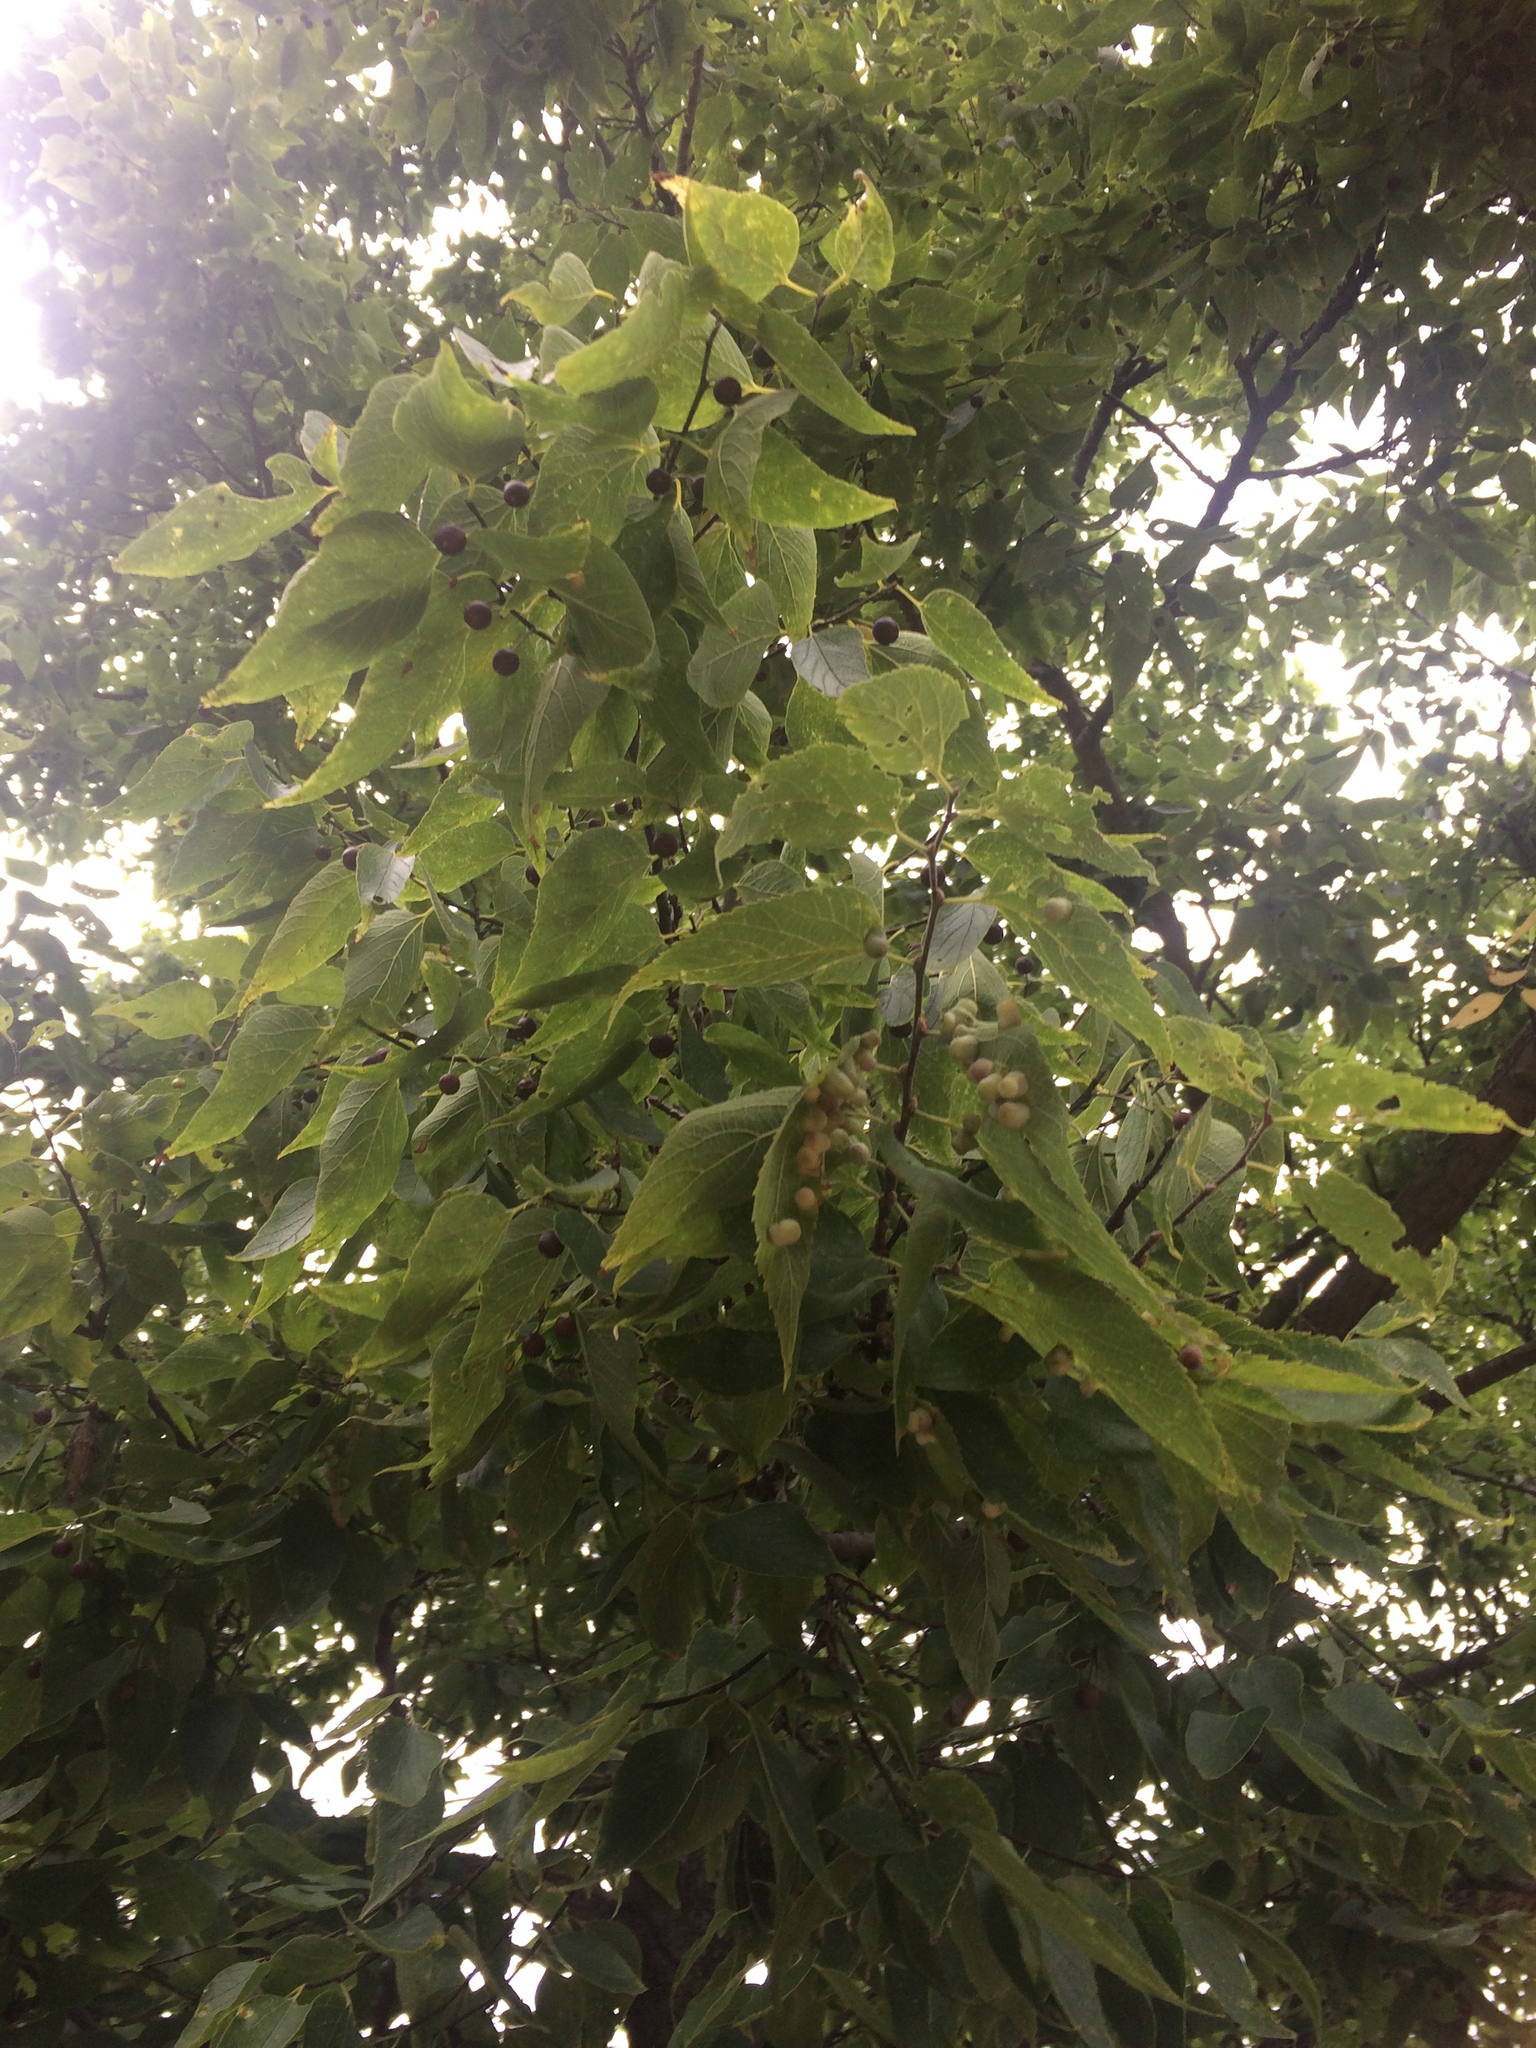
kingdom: Plantae
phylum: Tracheophyta
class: Magnoliopsida
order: Rosales
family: Cannabaceae
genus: Celtis
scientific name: Celtis occidentalis
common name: Common hackberry
